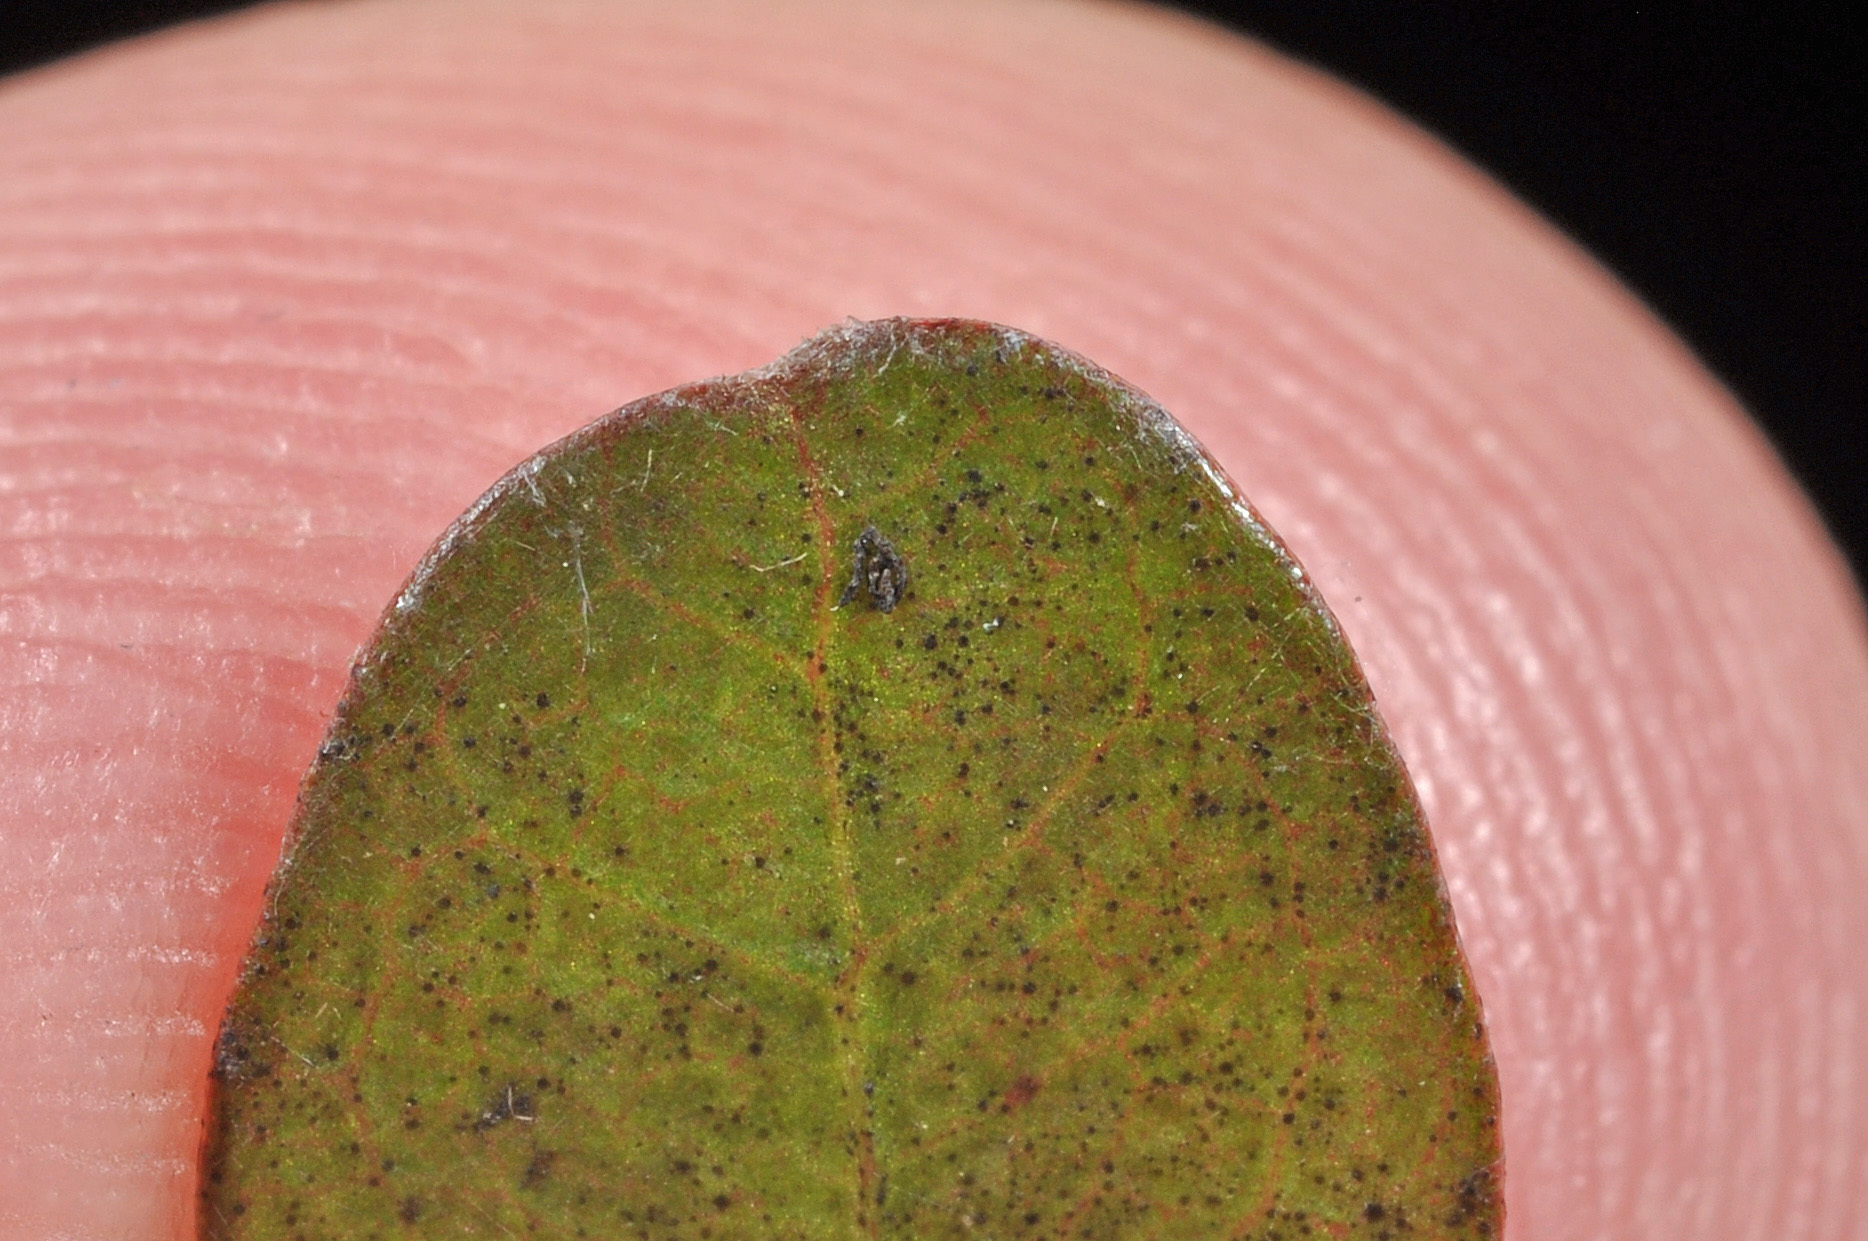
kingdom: Plantae
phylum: Tracheophyta
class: Magnoliopsida
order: Gentianales
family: Rubiaceae
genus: Coprosma
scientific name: Coprosma colensoi
